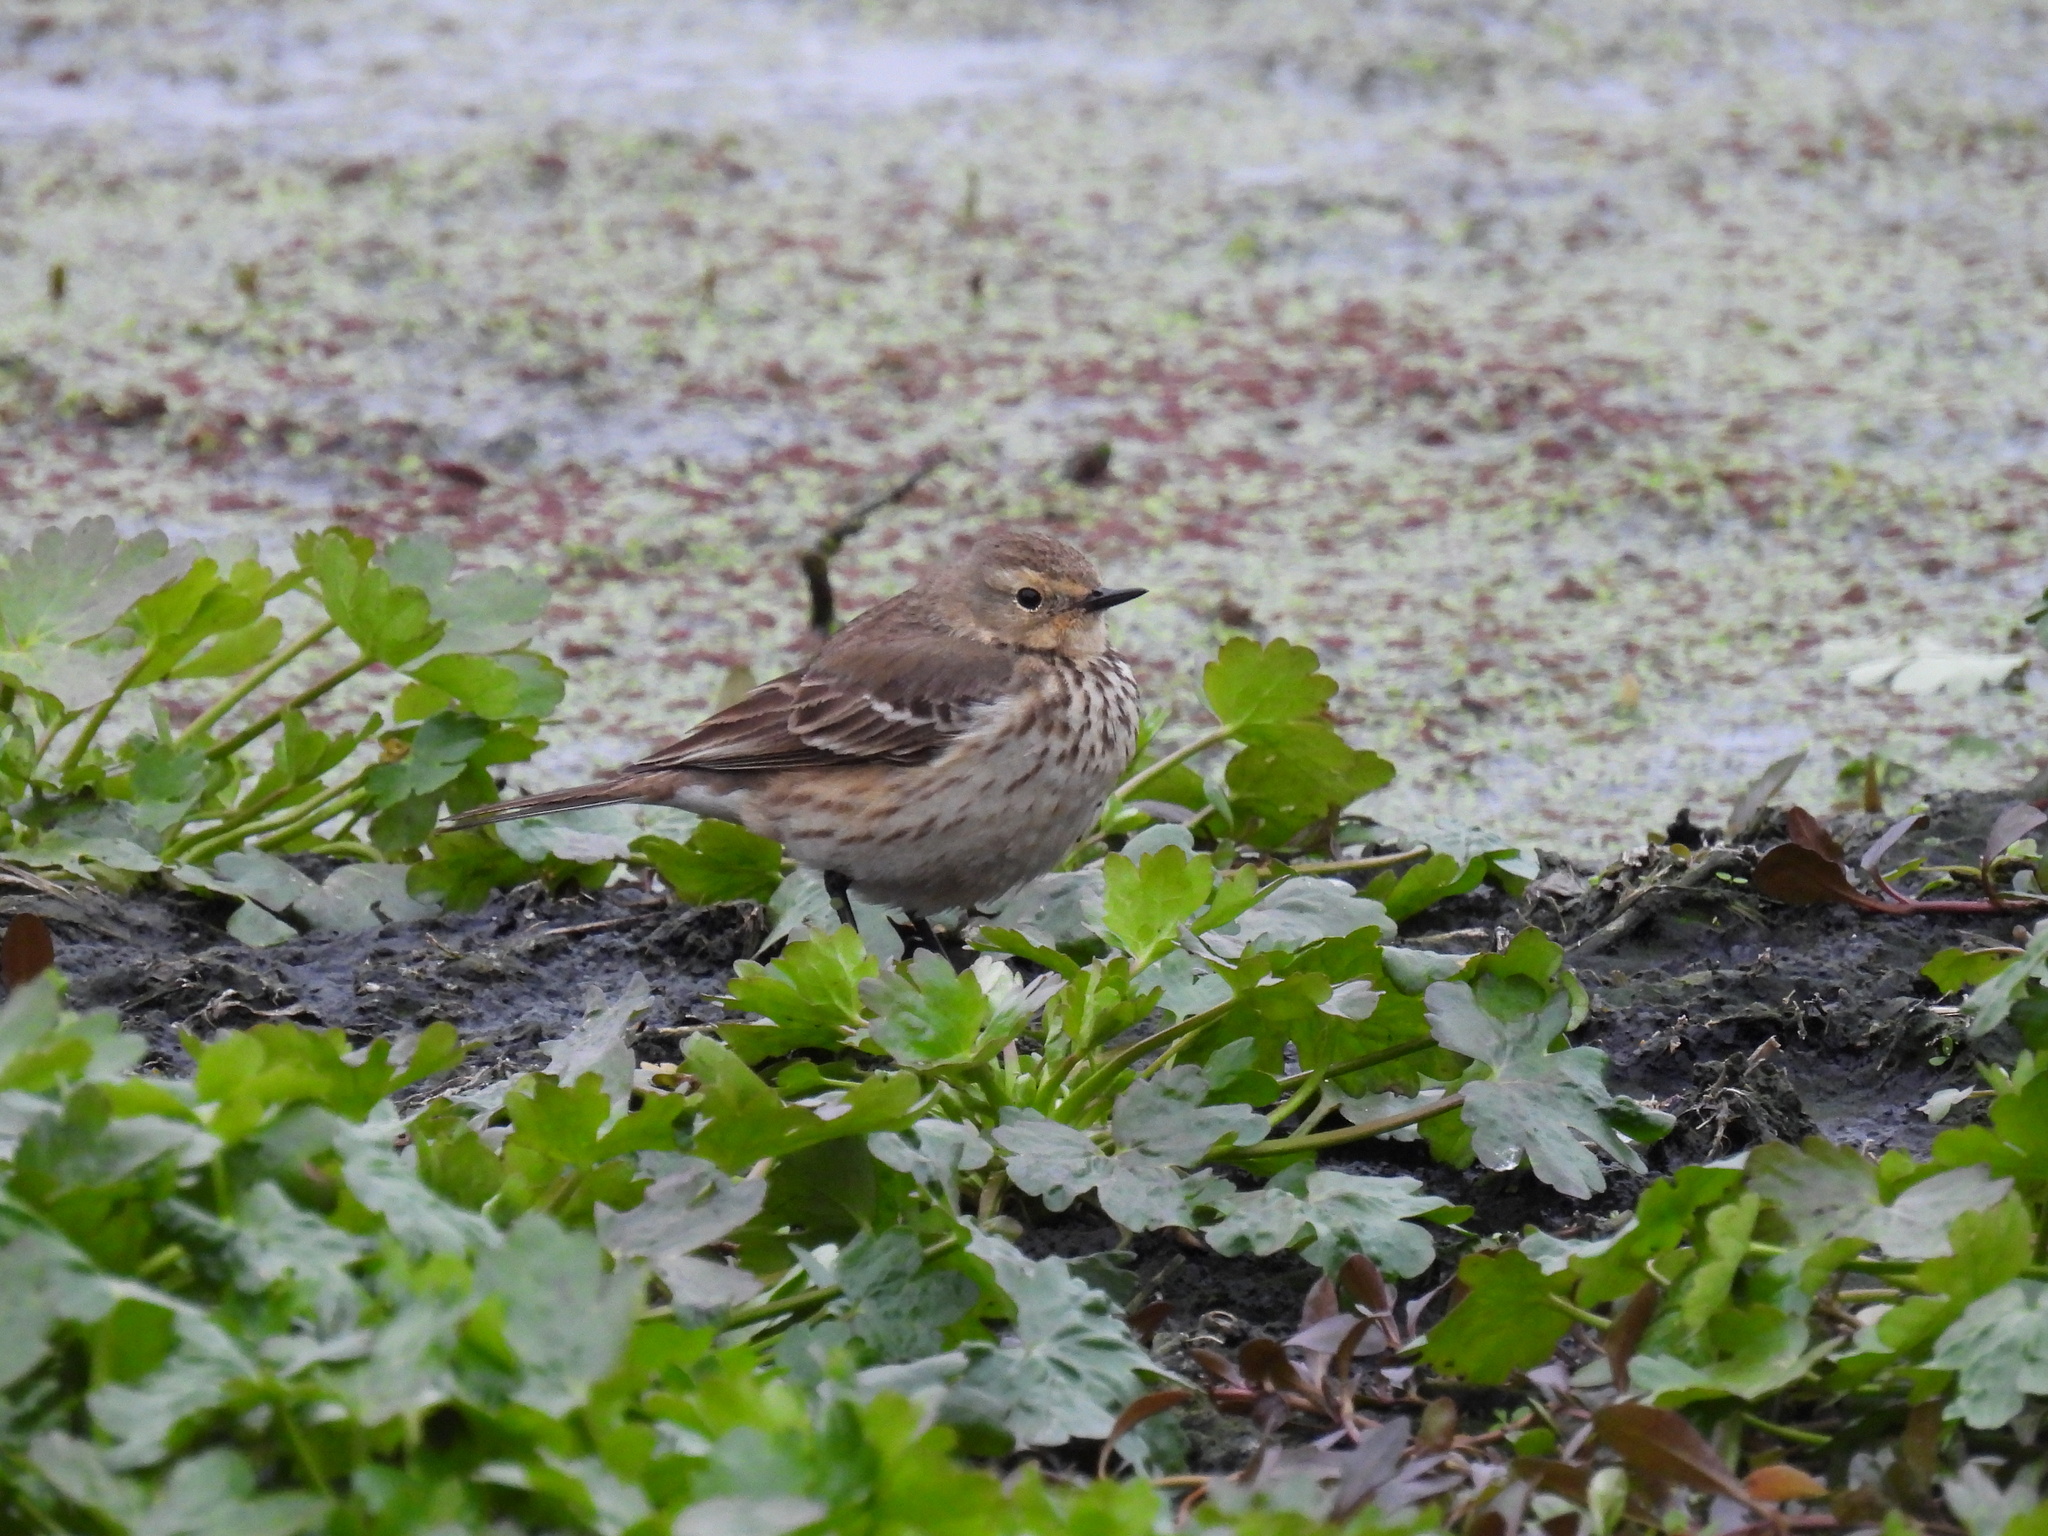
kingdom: Animalia
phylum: Chordata
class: Aves
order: Passeriformes
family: Motacillidae
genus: Anthus
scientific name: Anthus rubescens
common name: Buff-bellied pipit
